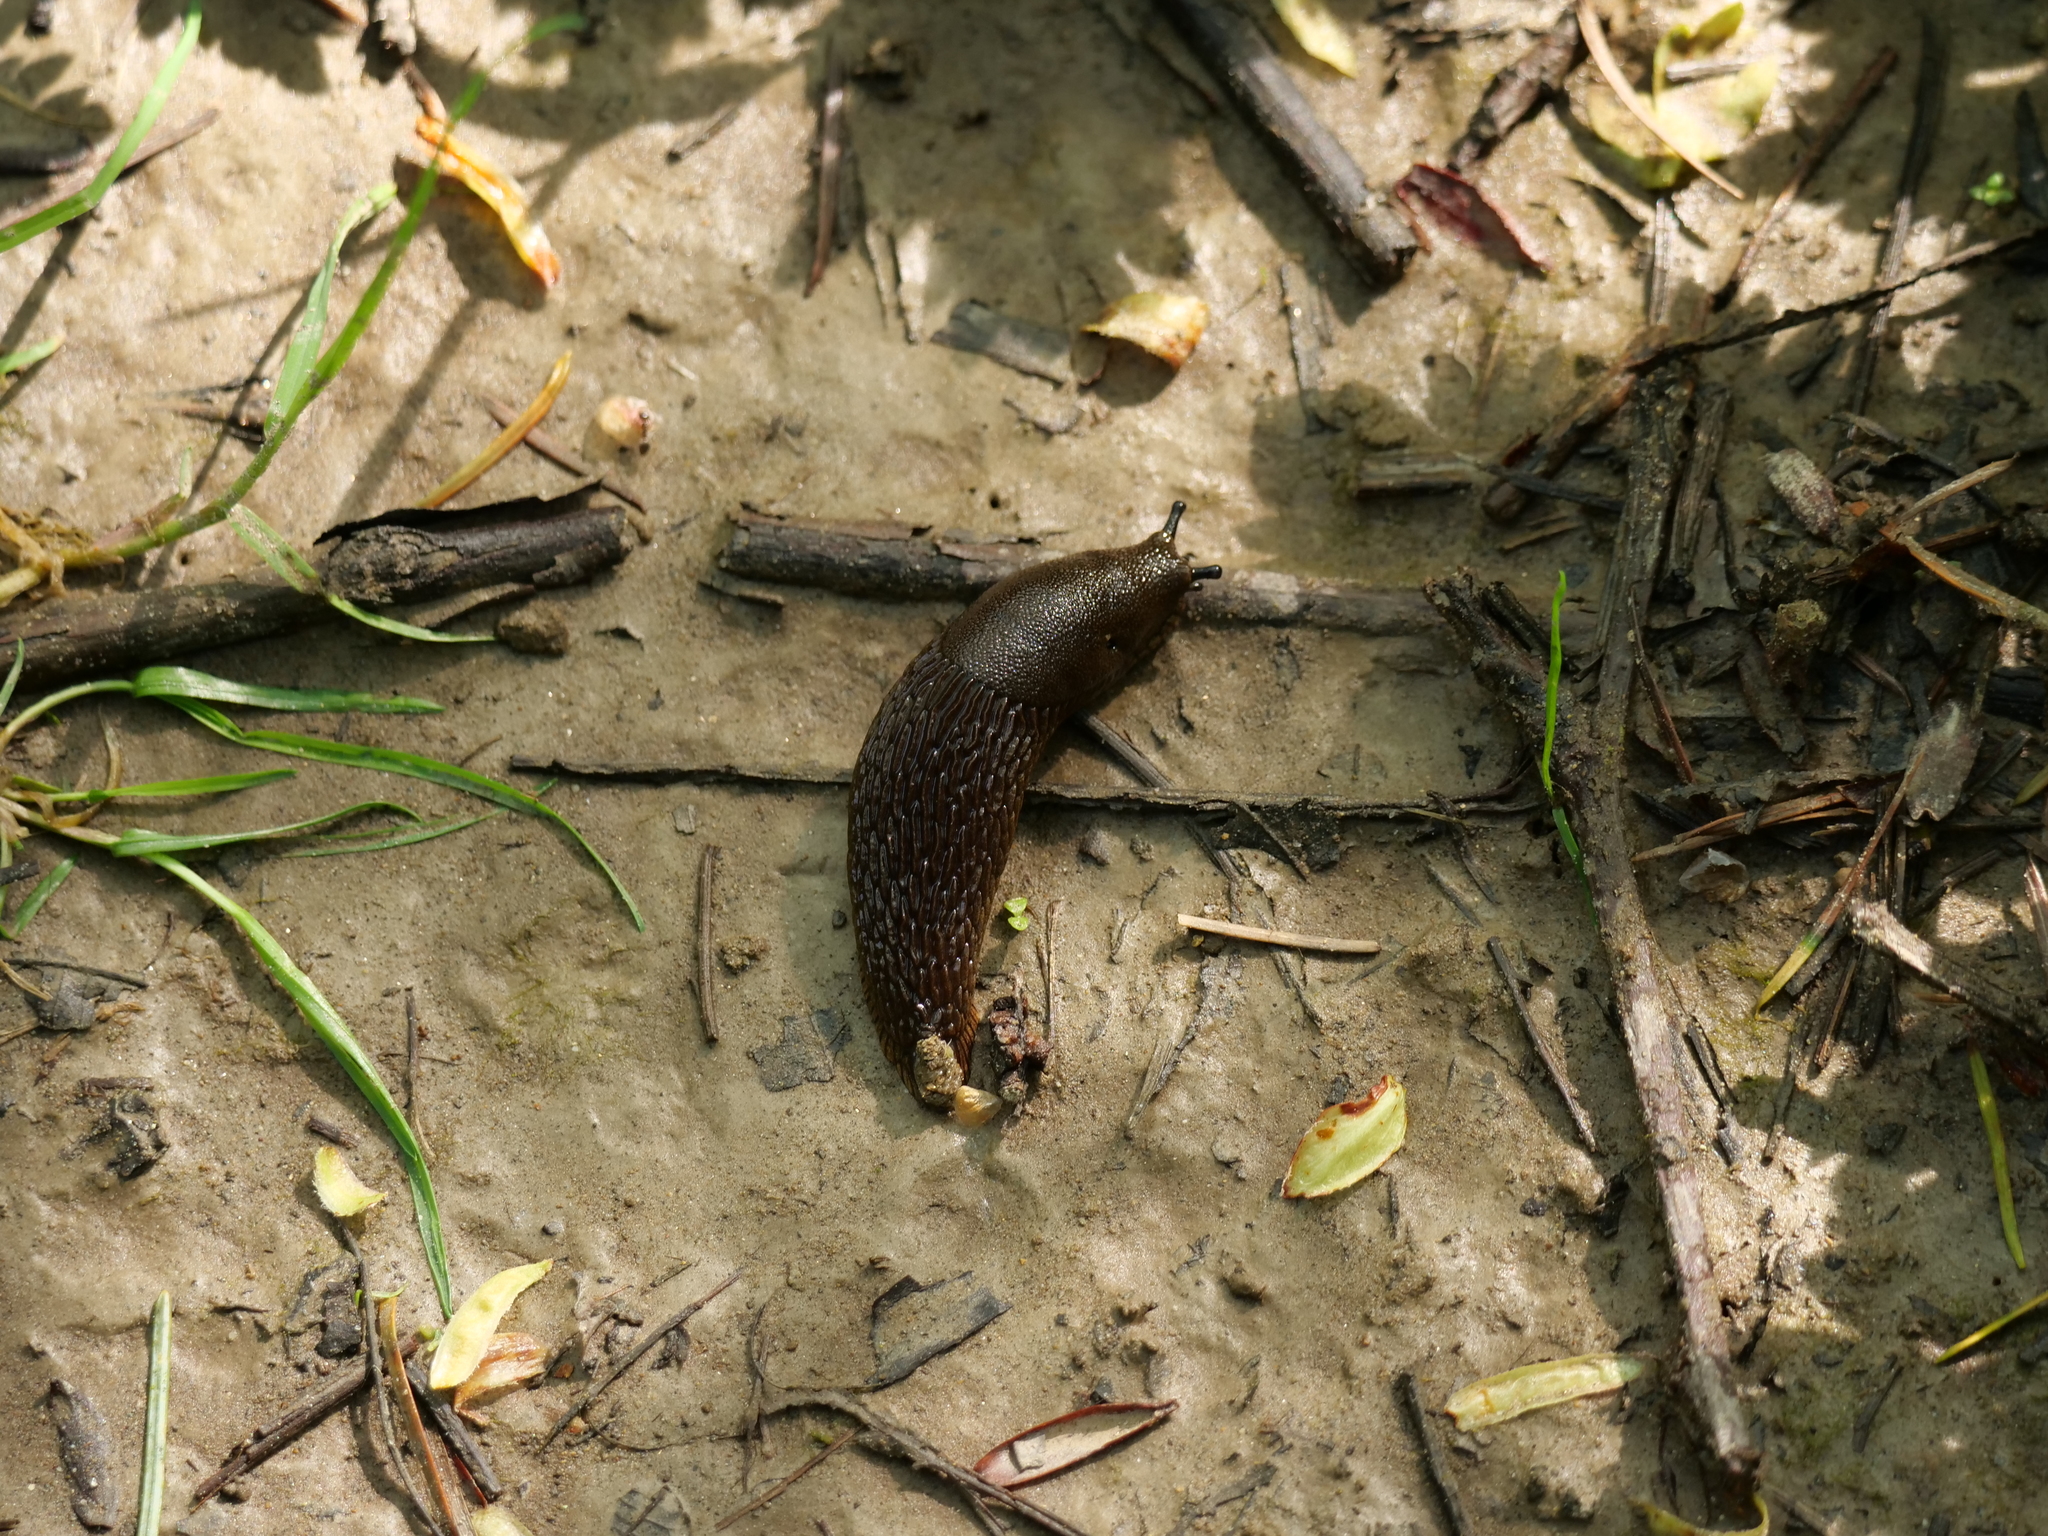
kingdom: Animalia
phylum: Mollusca
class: Gastropoda
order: Stylommatophora
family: Arionidae
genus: Arion
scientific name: Arion rufus
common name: Chocolate arion
